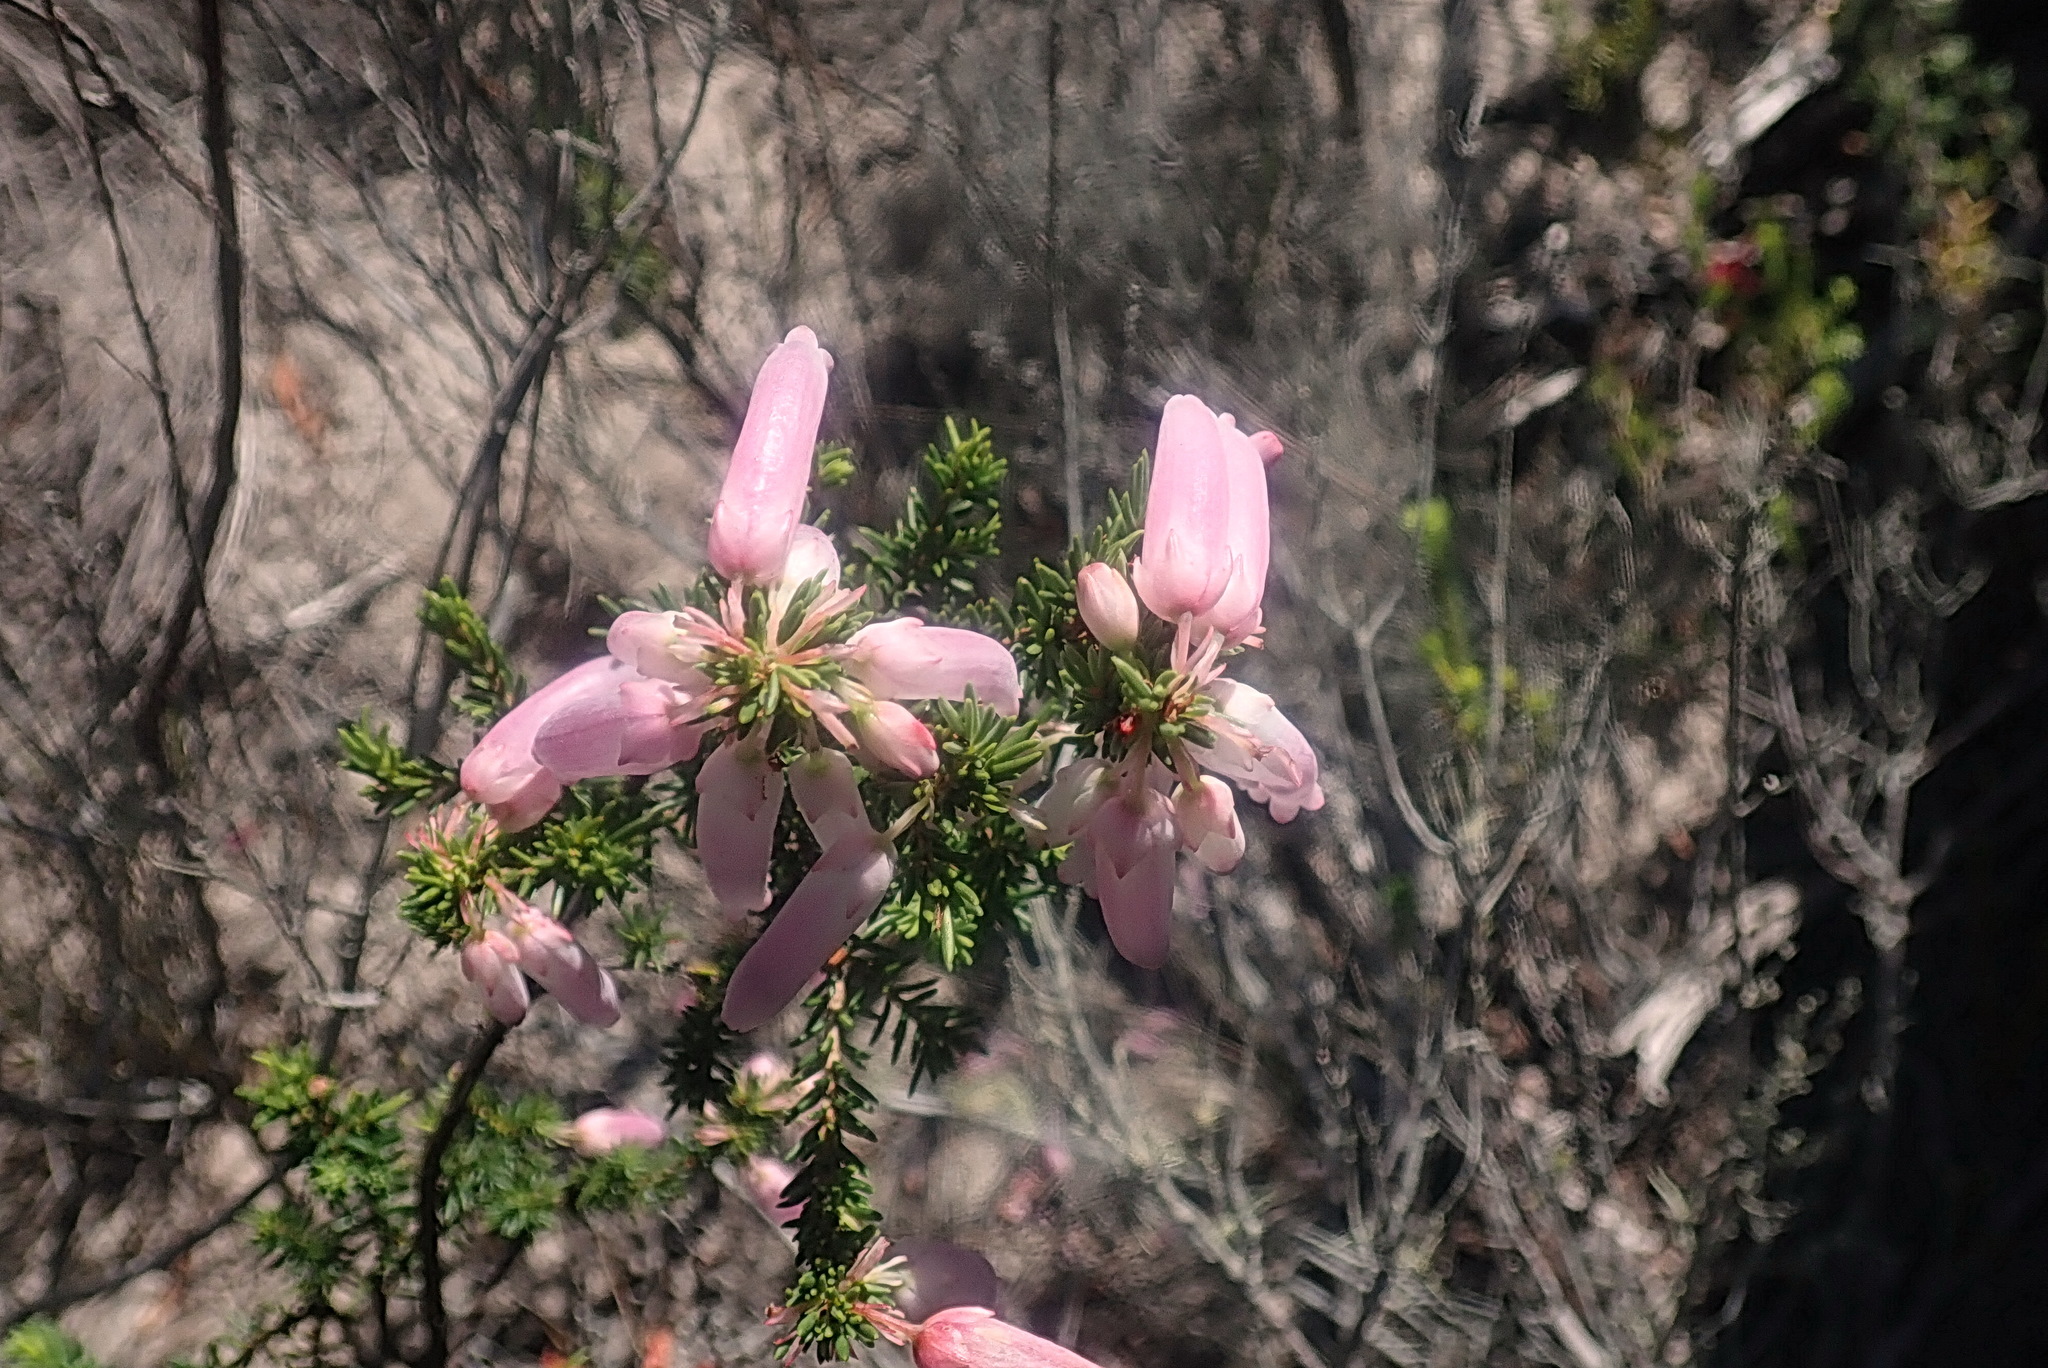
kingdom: Plantae
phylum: Tracheophyta
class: Magnoliopsida
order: Ericales
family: Ericaceae
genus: Erica
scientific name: Erica bauera
